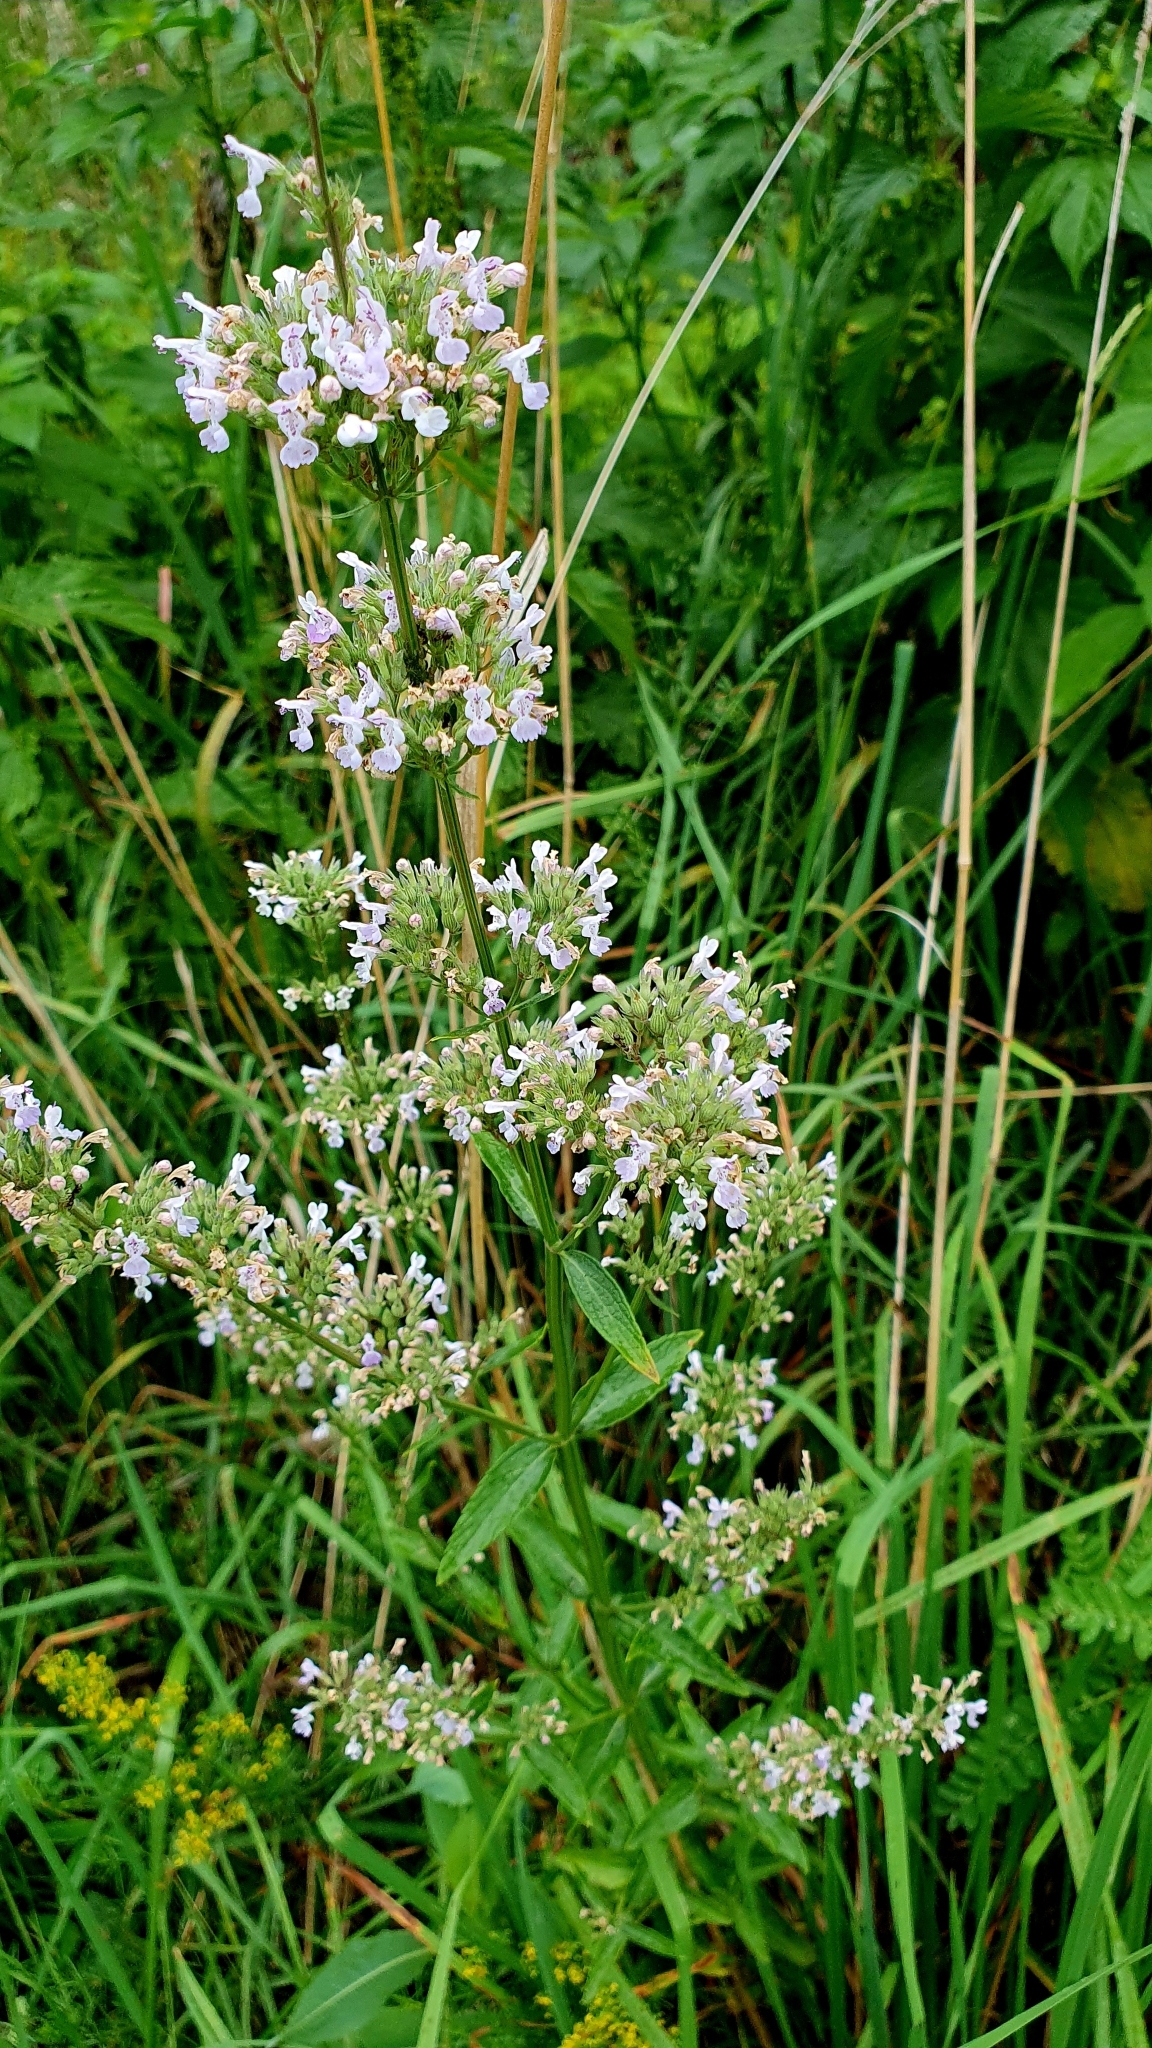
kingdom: Plantae
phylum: Tracheophyta
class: Magnoliopsida
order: Lamiales
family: Lamiaceae
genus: Nepeta
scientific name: Nepeta nuda
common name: Hairless catmint
